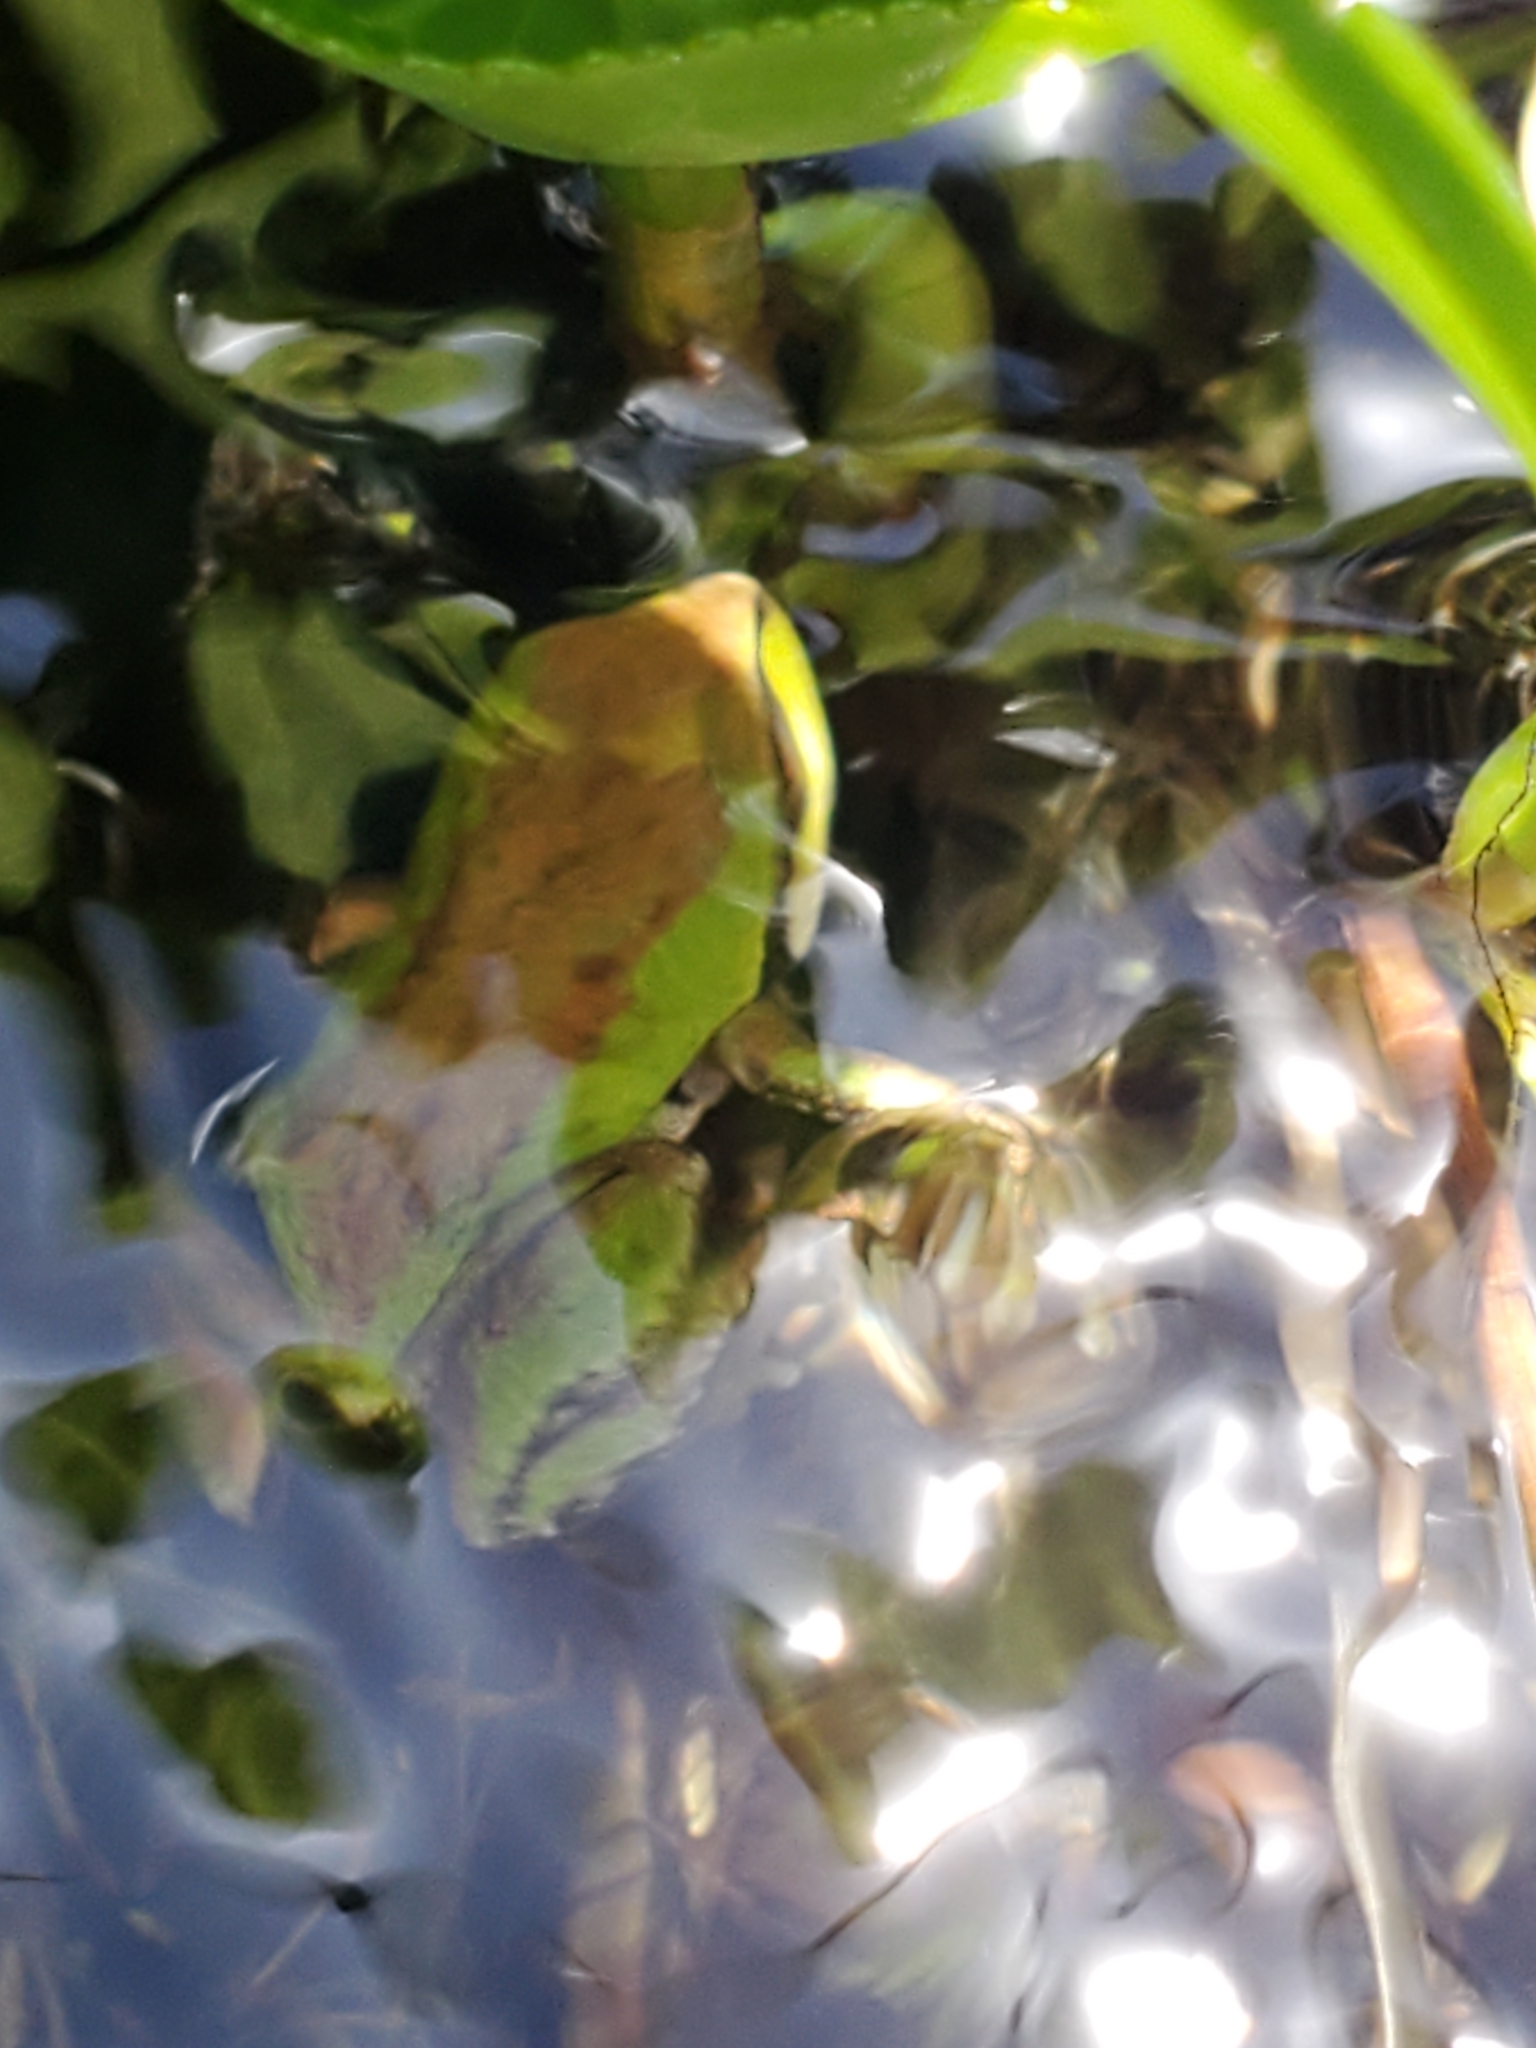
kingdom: Animalia
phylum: Chordata
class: Amphibia
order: Anura
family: Hylidae
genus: Pseudacris
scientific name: Pseudacris regilla
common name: Pacific chorus frog
